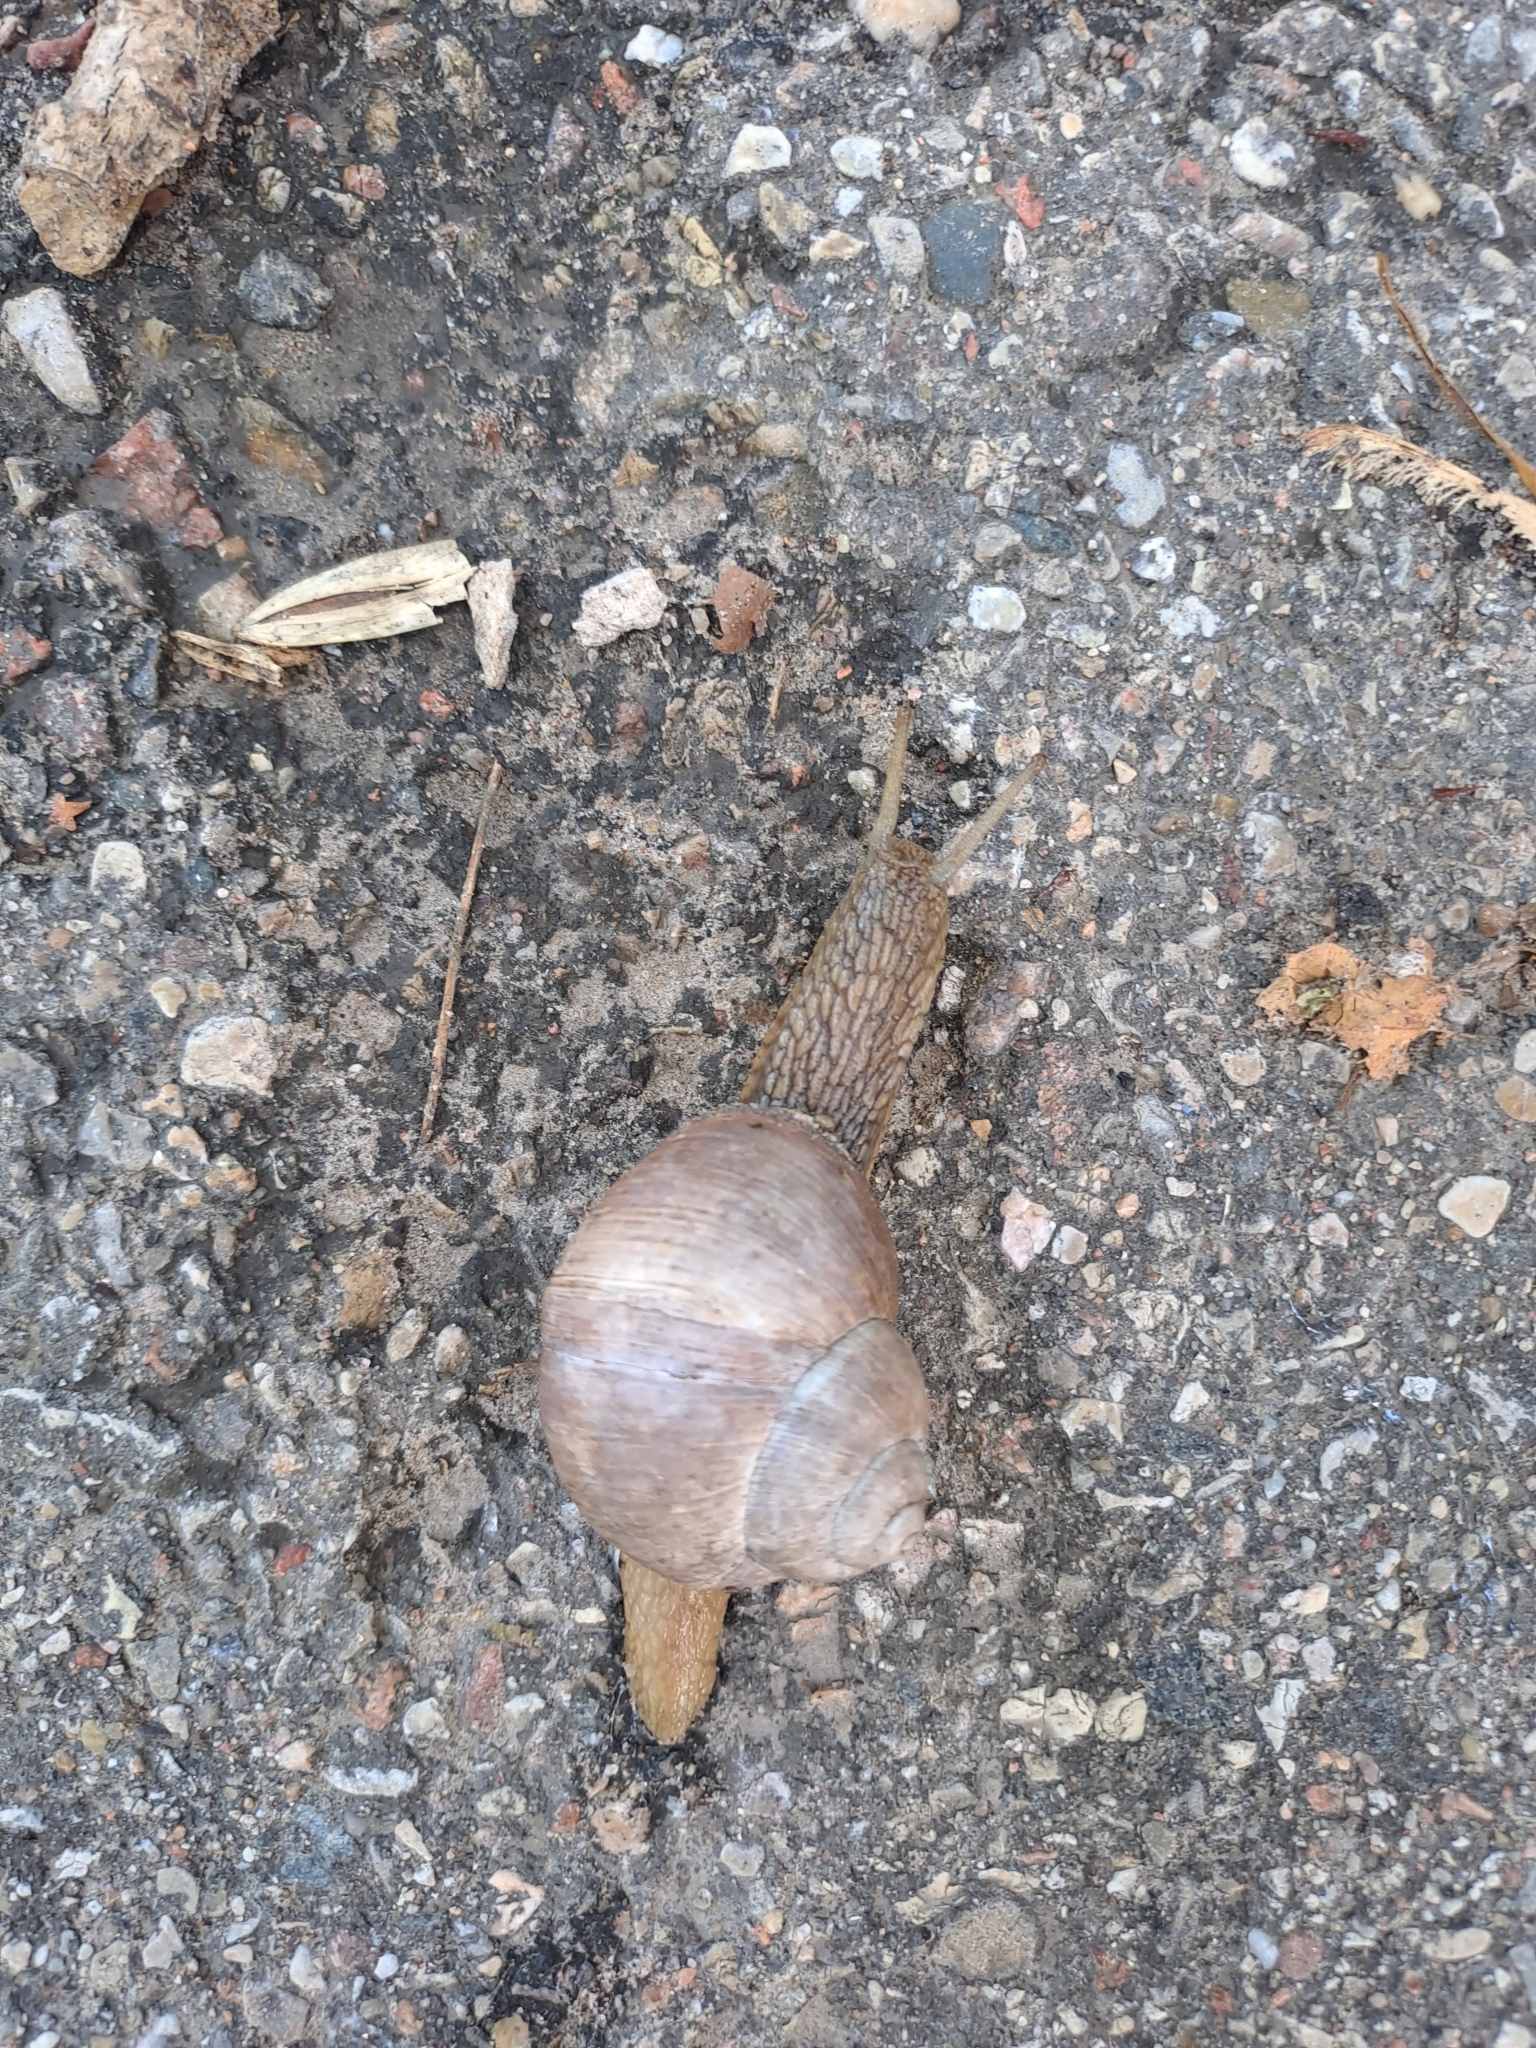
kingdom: Animalia
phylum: Mollusca
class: Gastropoda
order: Stylommatophora
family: Helicidae
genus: Helix
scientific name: Helix pomatia
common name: Roman snail
